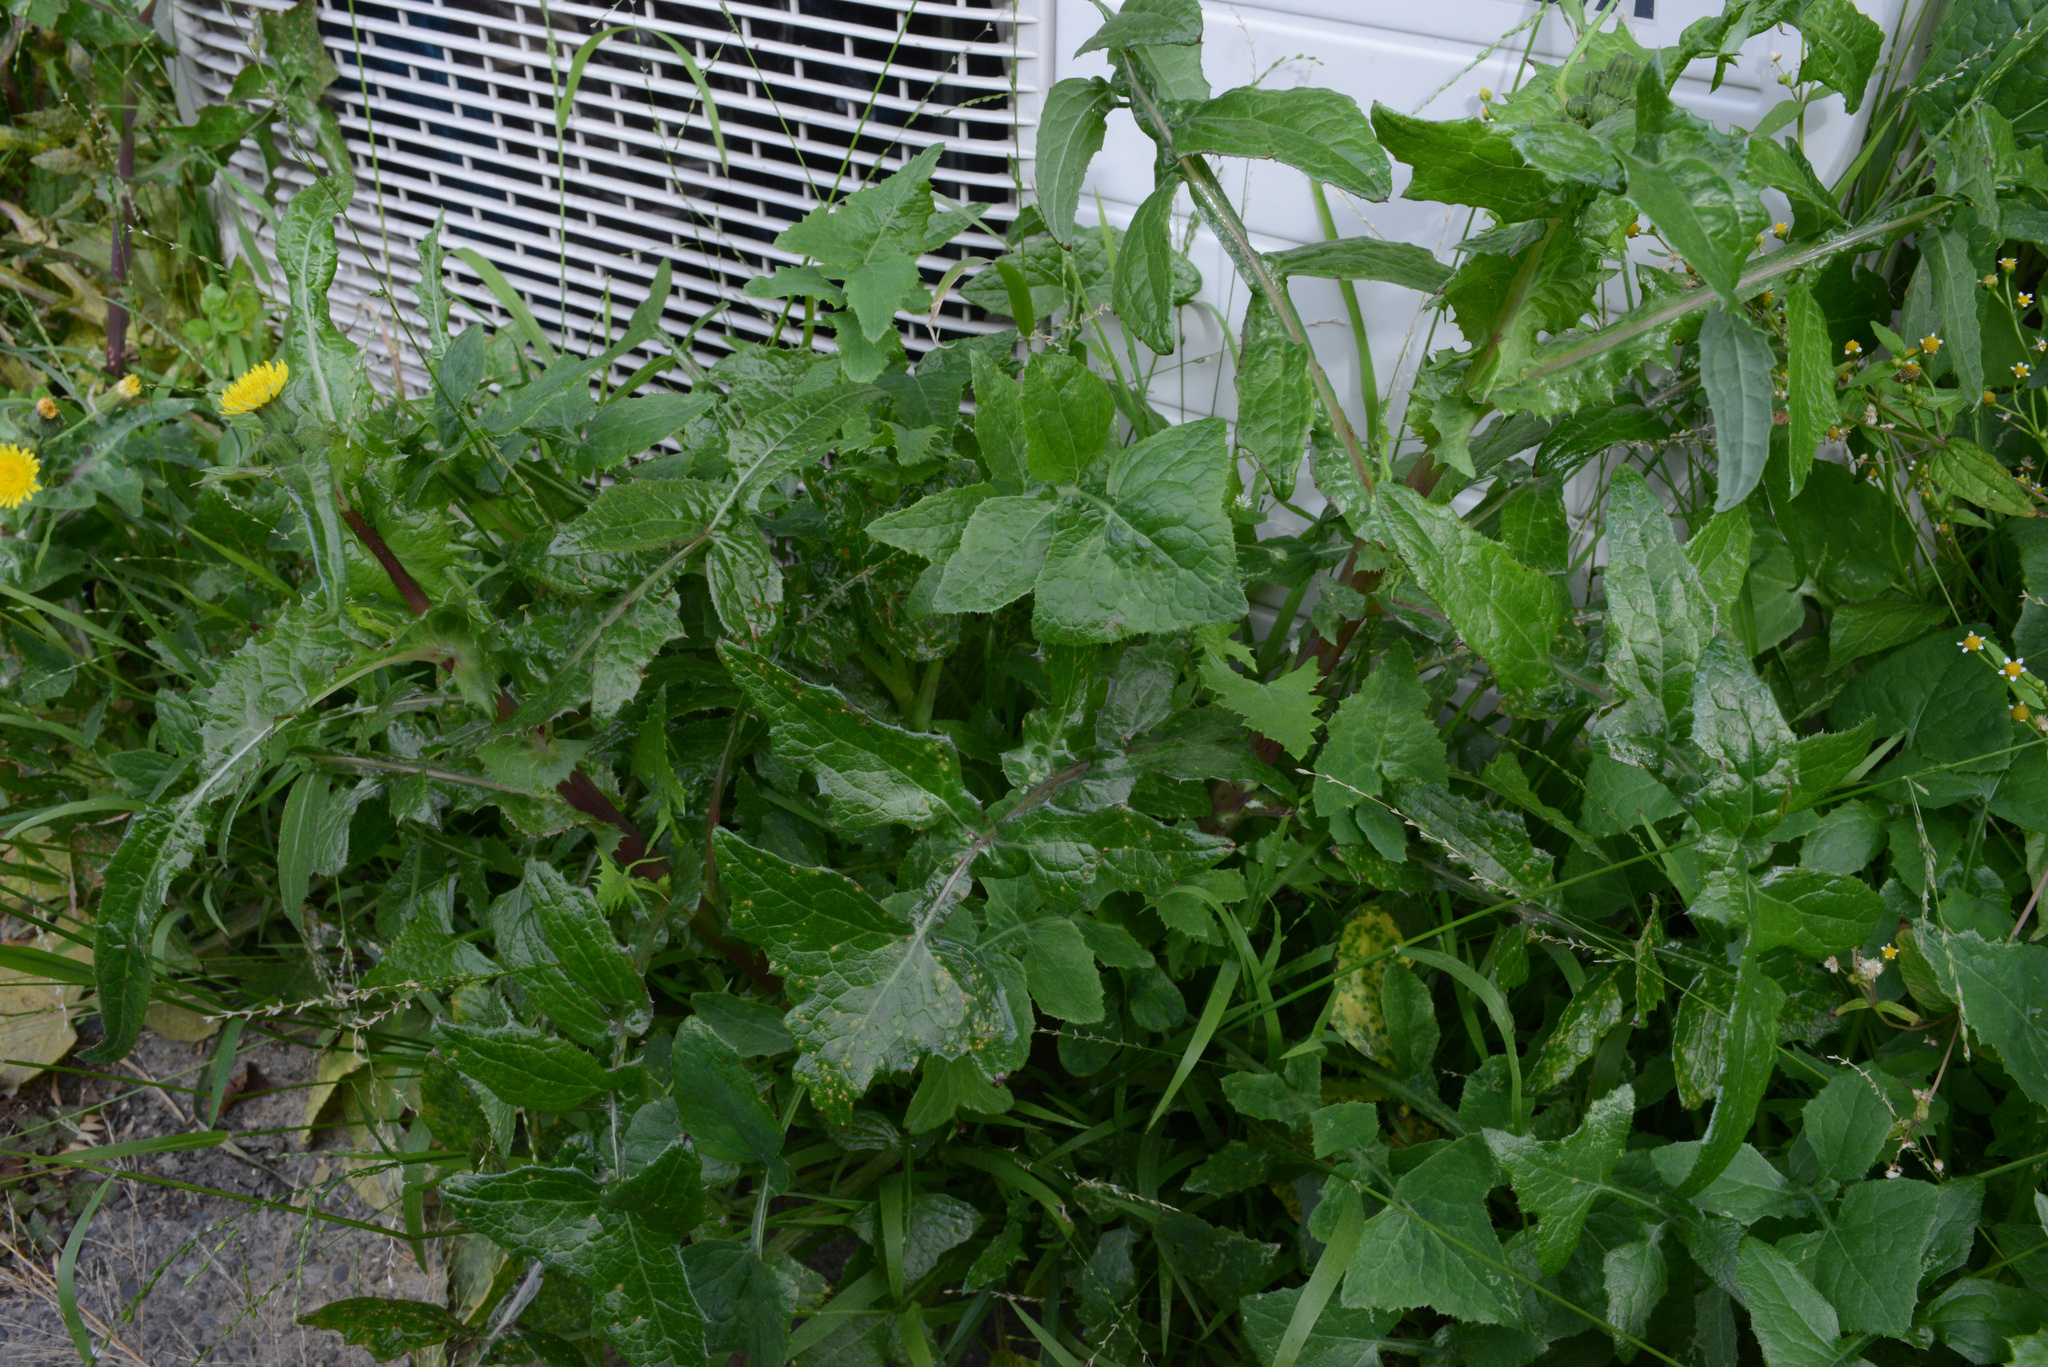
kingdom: Plantae
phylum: Tracheophyta
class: Magnoliopsida
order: Asterales
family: Asteraceae
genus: Sonchus
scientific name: Sonchus asper
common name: Prickly sow-thistle
